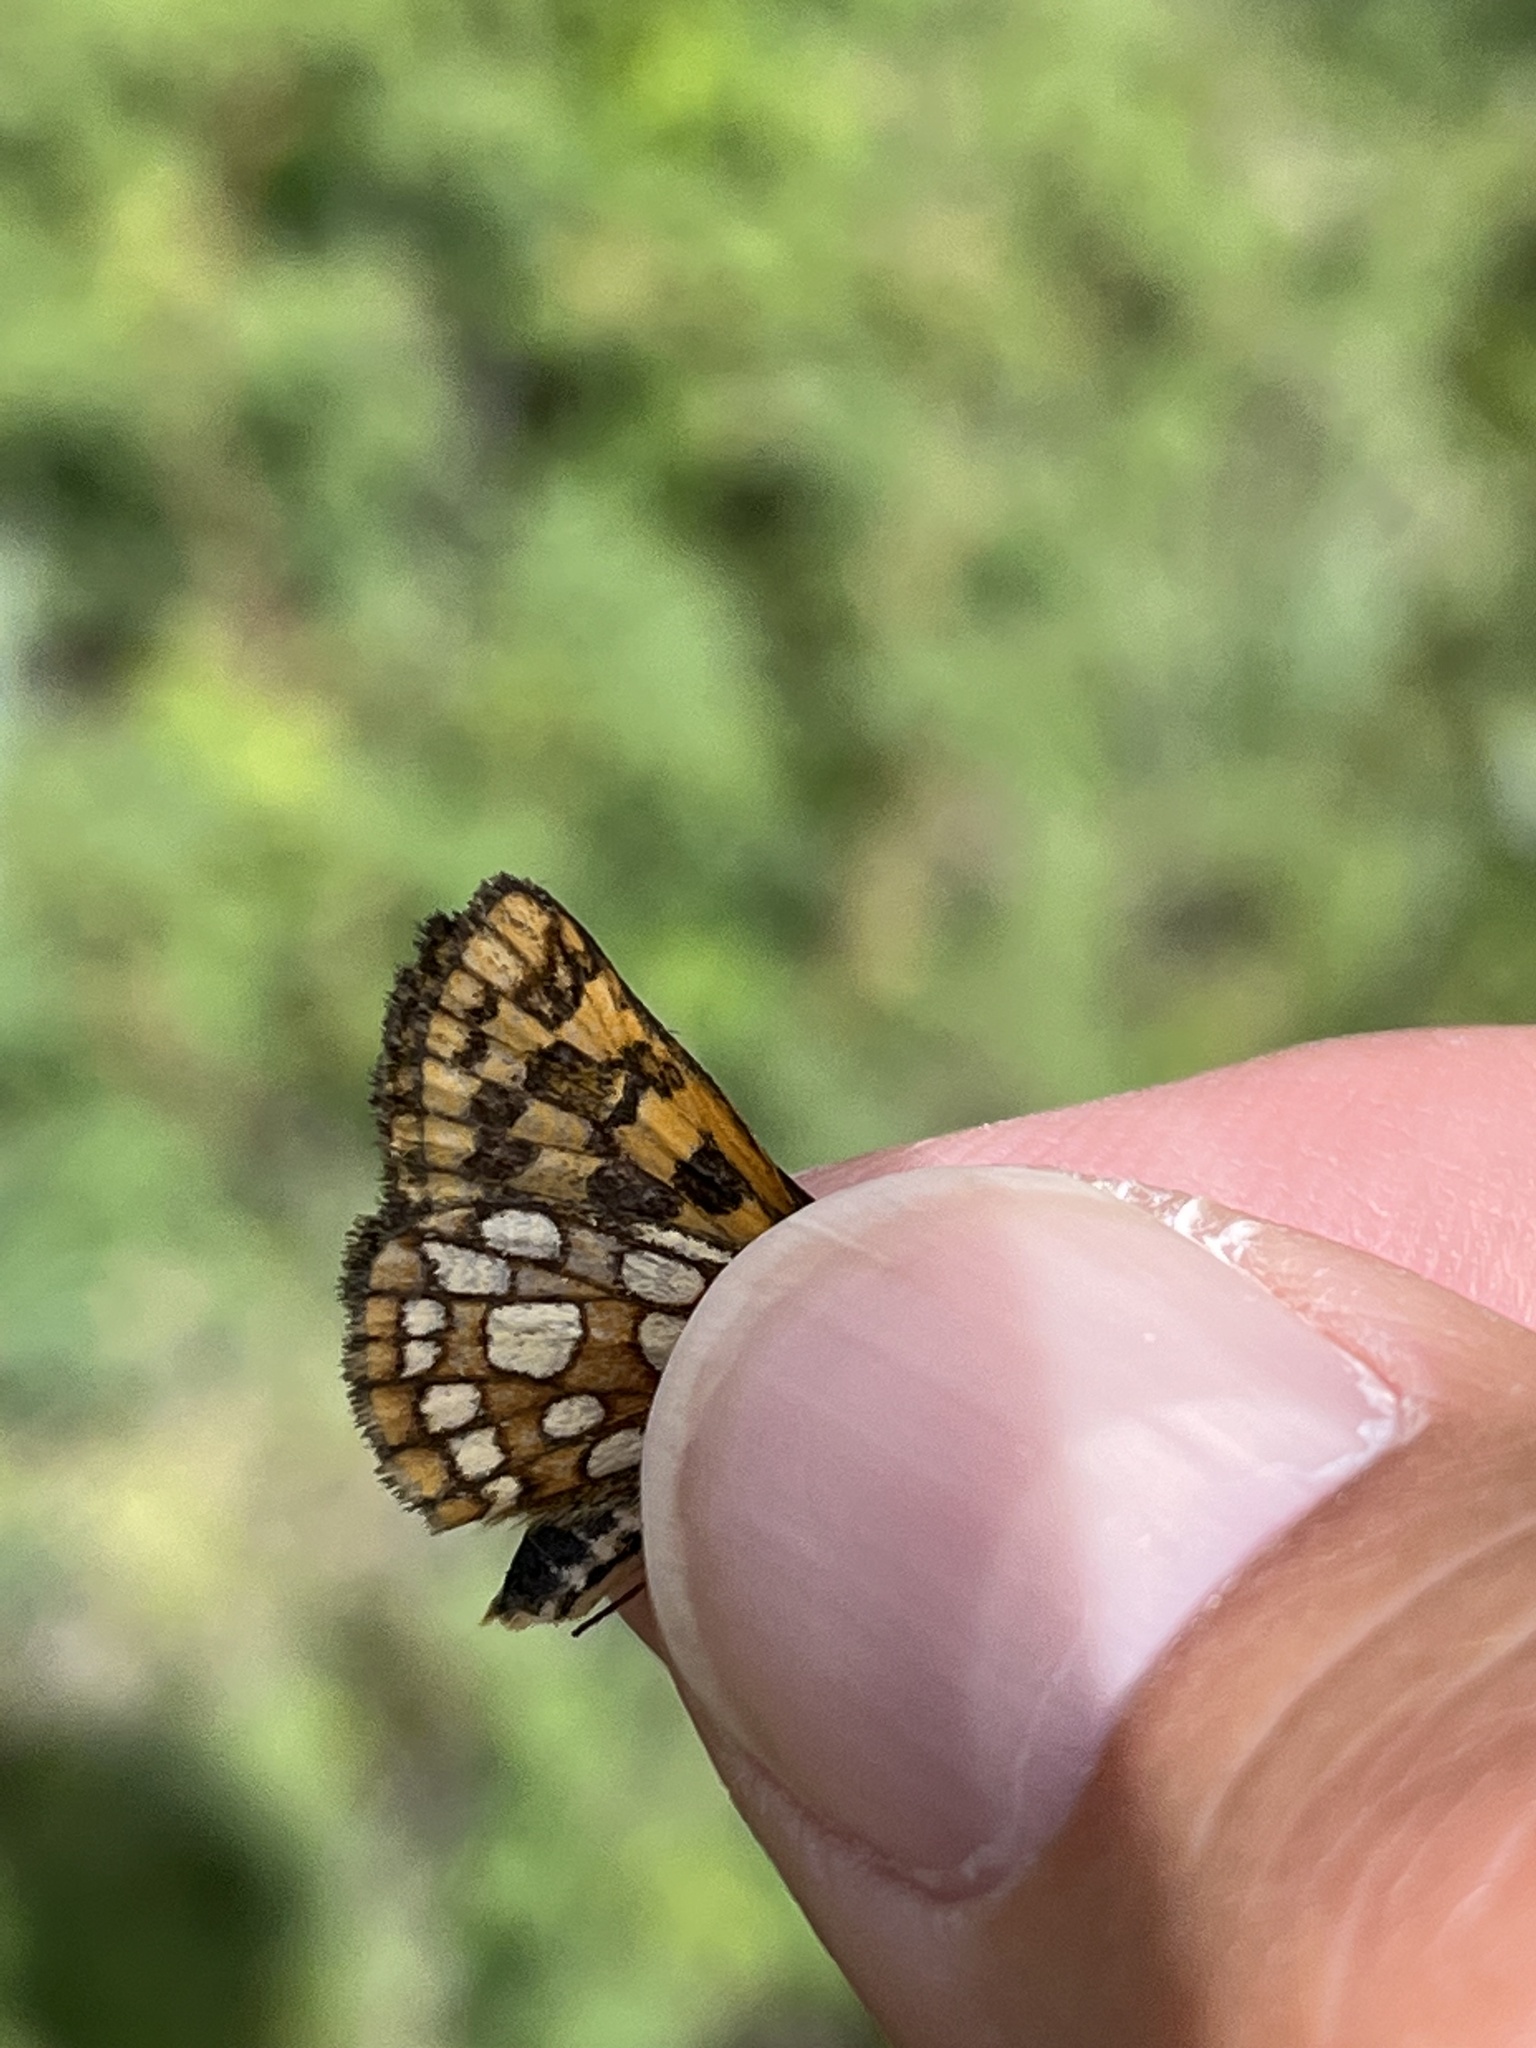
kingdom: Animalia
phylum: Arthropoda
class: Insecta
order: Lepidoptera
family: Hesperiidae
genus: Carterocephalus
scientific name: Carterocephalus skada
